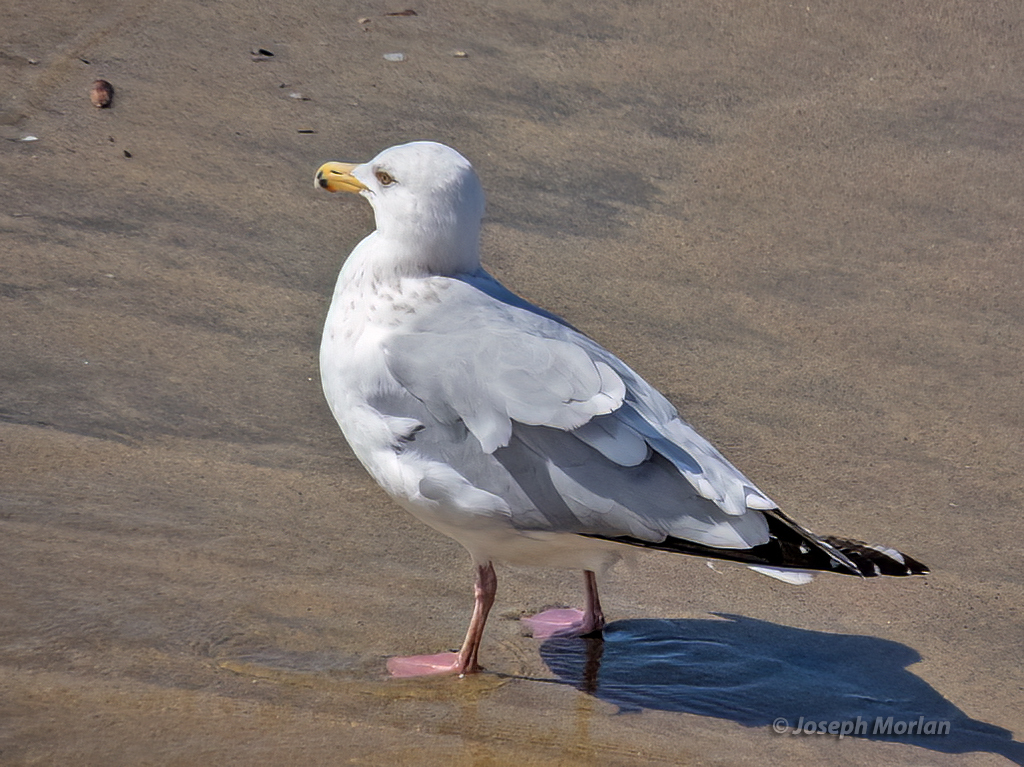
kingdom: Animalia
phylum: Chordata
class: Aves
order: Charadriiformes
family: Laridae
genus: Larus
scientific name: Larus argentatus
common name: Herring gull
